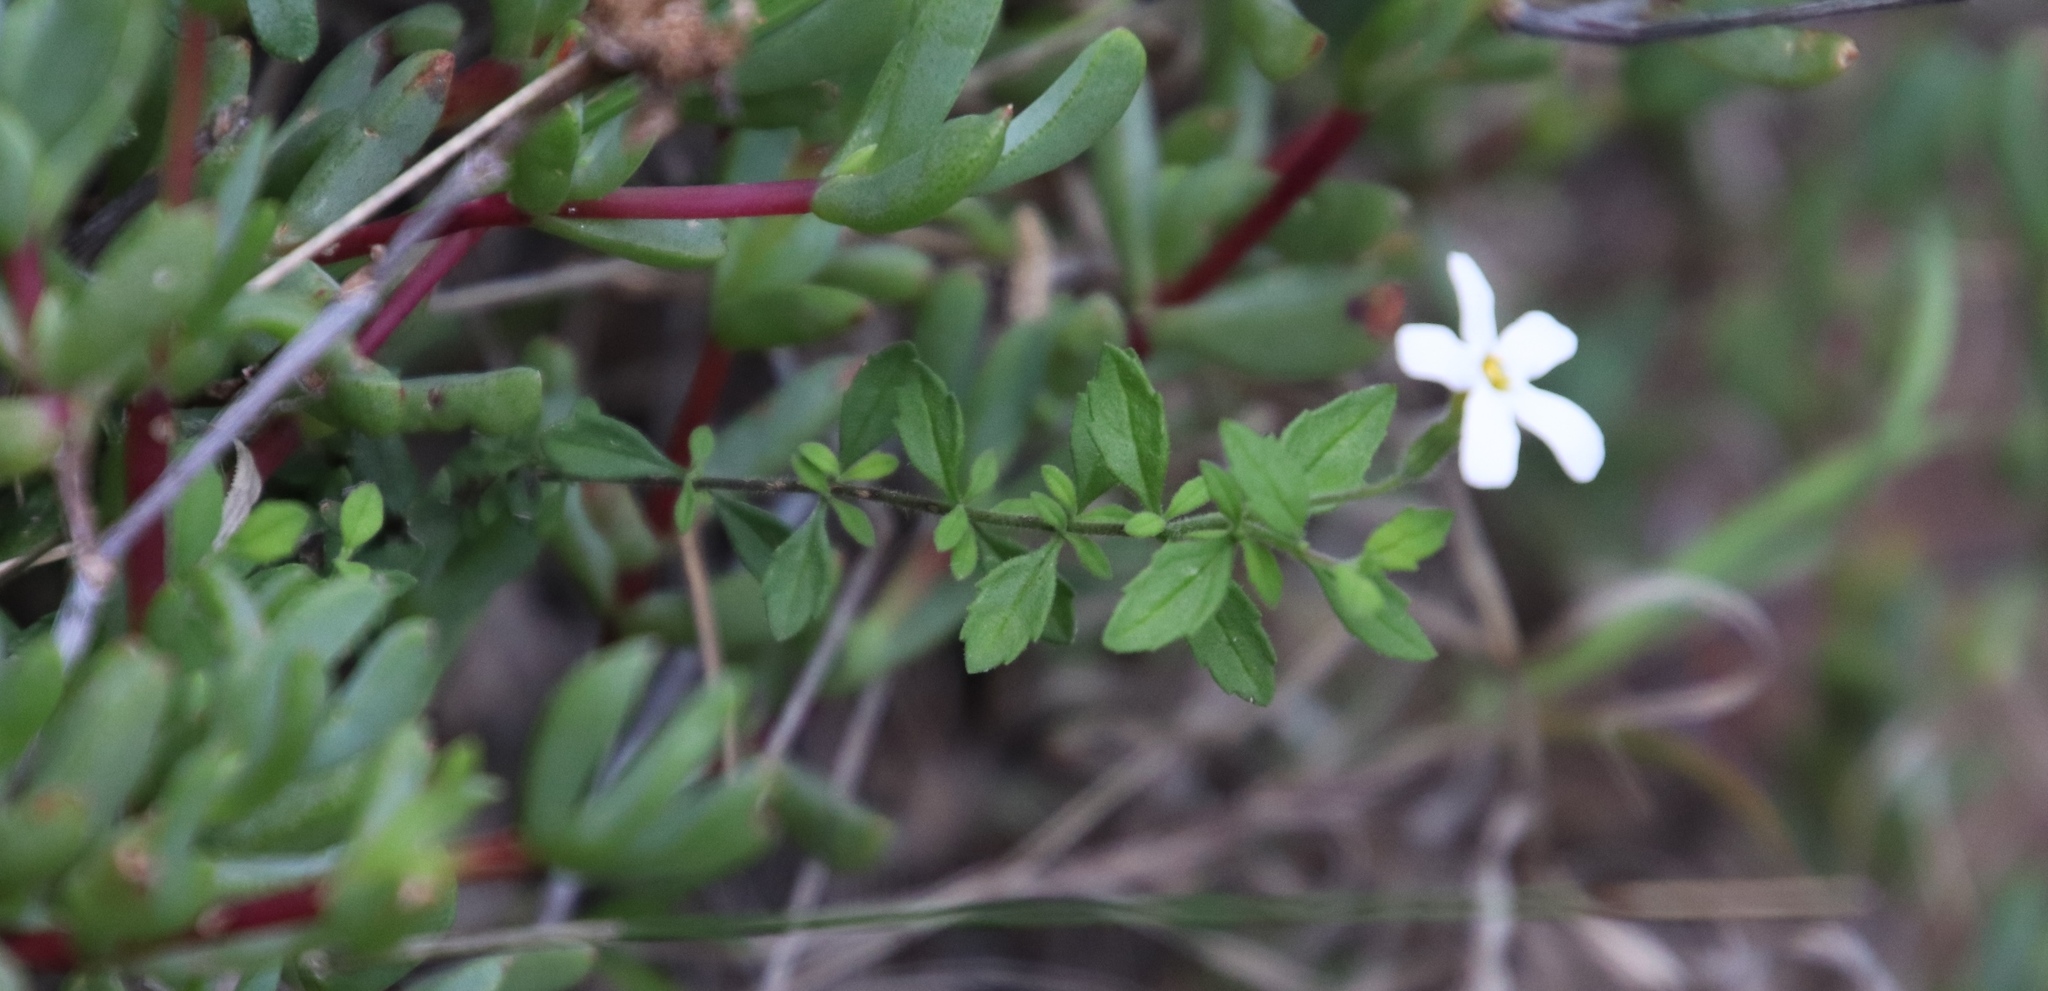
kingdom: Plantae
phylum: Tracheophyta
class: Magnoliopsida
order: Lamiales
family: Scrophulariaceae
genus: Chaenostoma
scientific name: Chaenostoma hispidum
